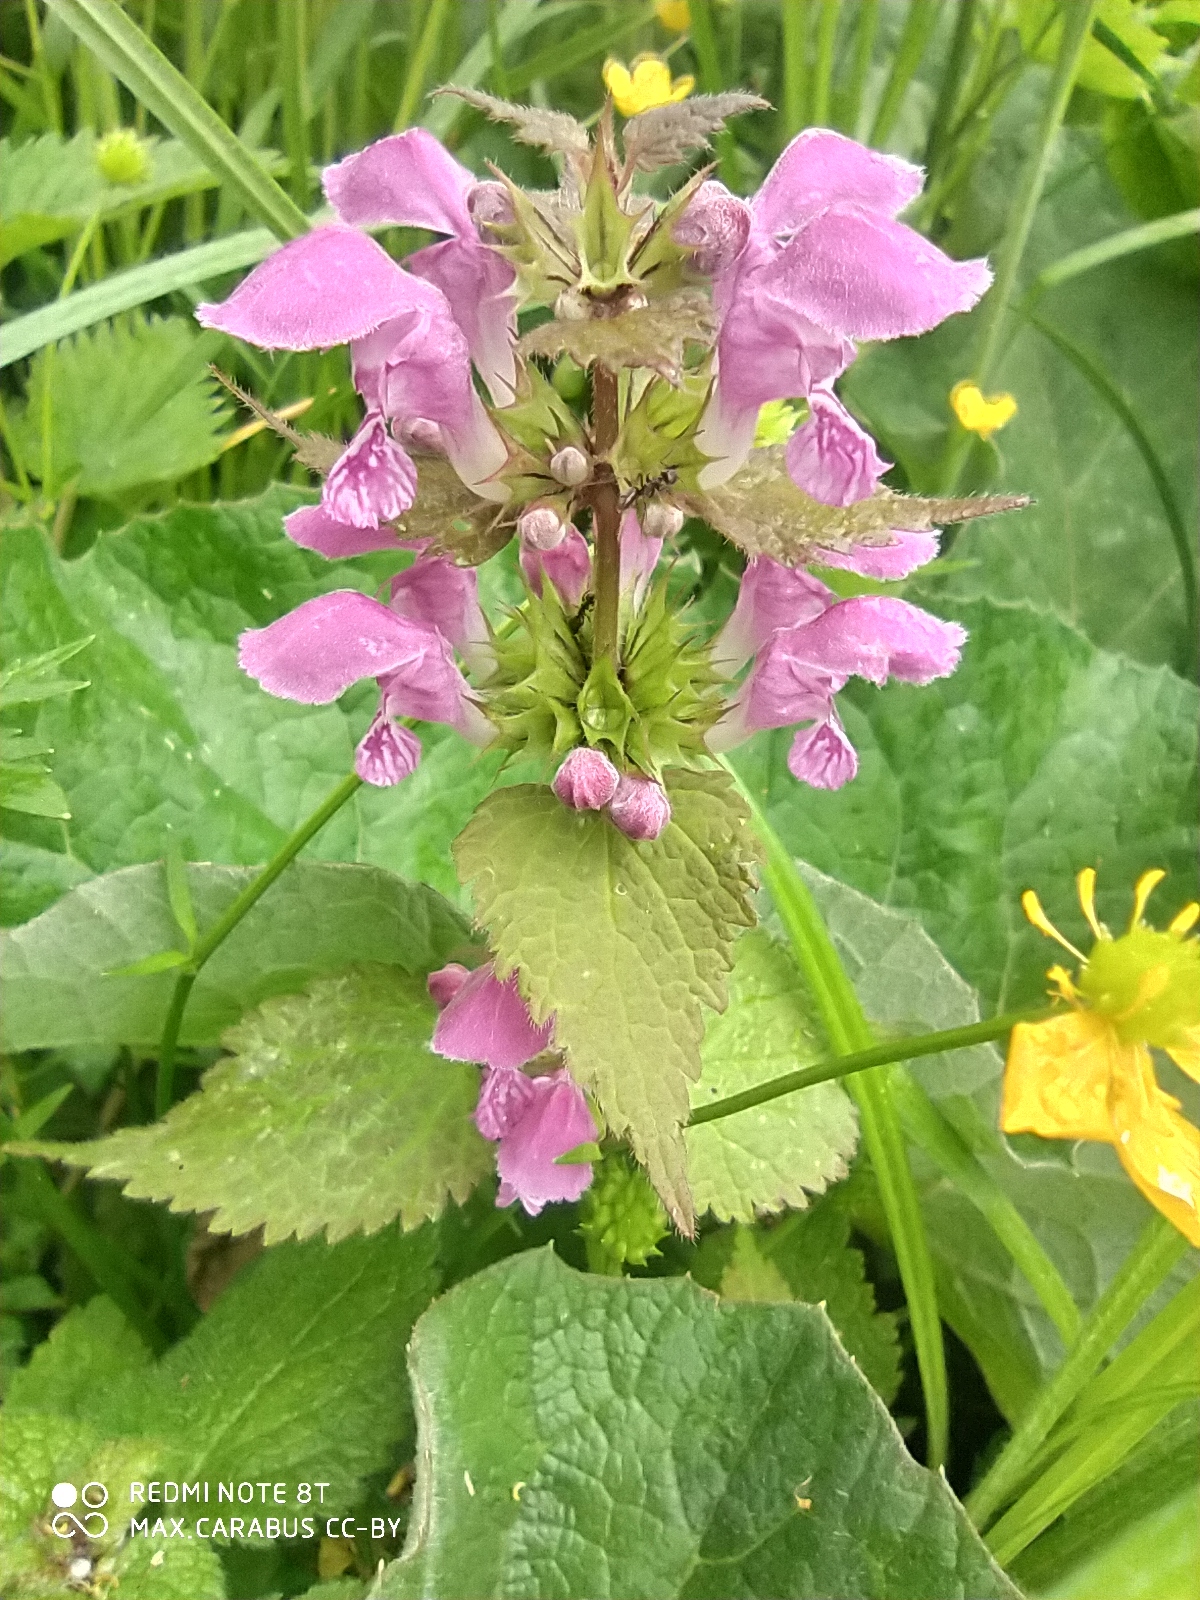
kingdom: Plantae
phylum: Tracheophyta
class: Magnoliopsida
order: Lamiales
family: Lamiaceae
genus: Lamium
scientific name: Lamium maculatum
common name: Spotted dead-nettle
